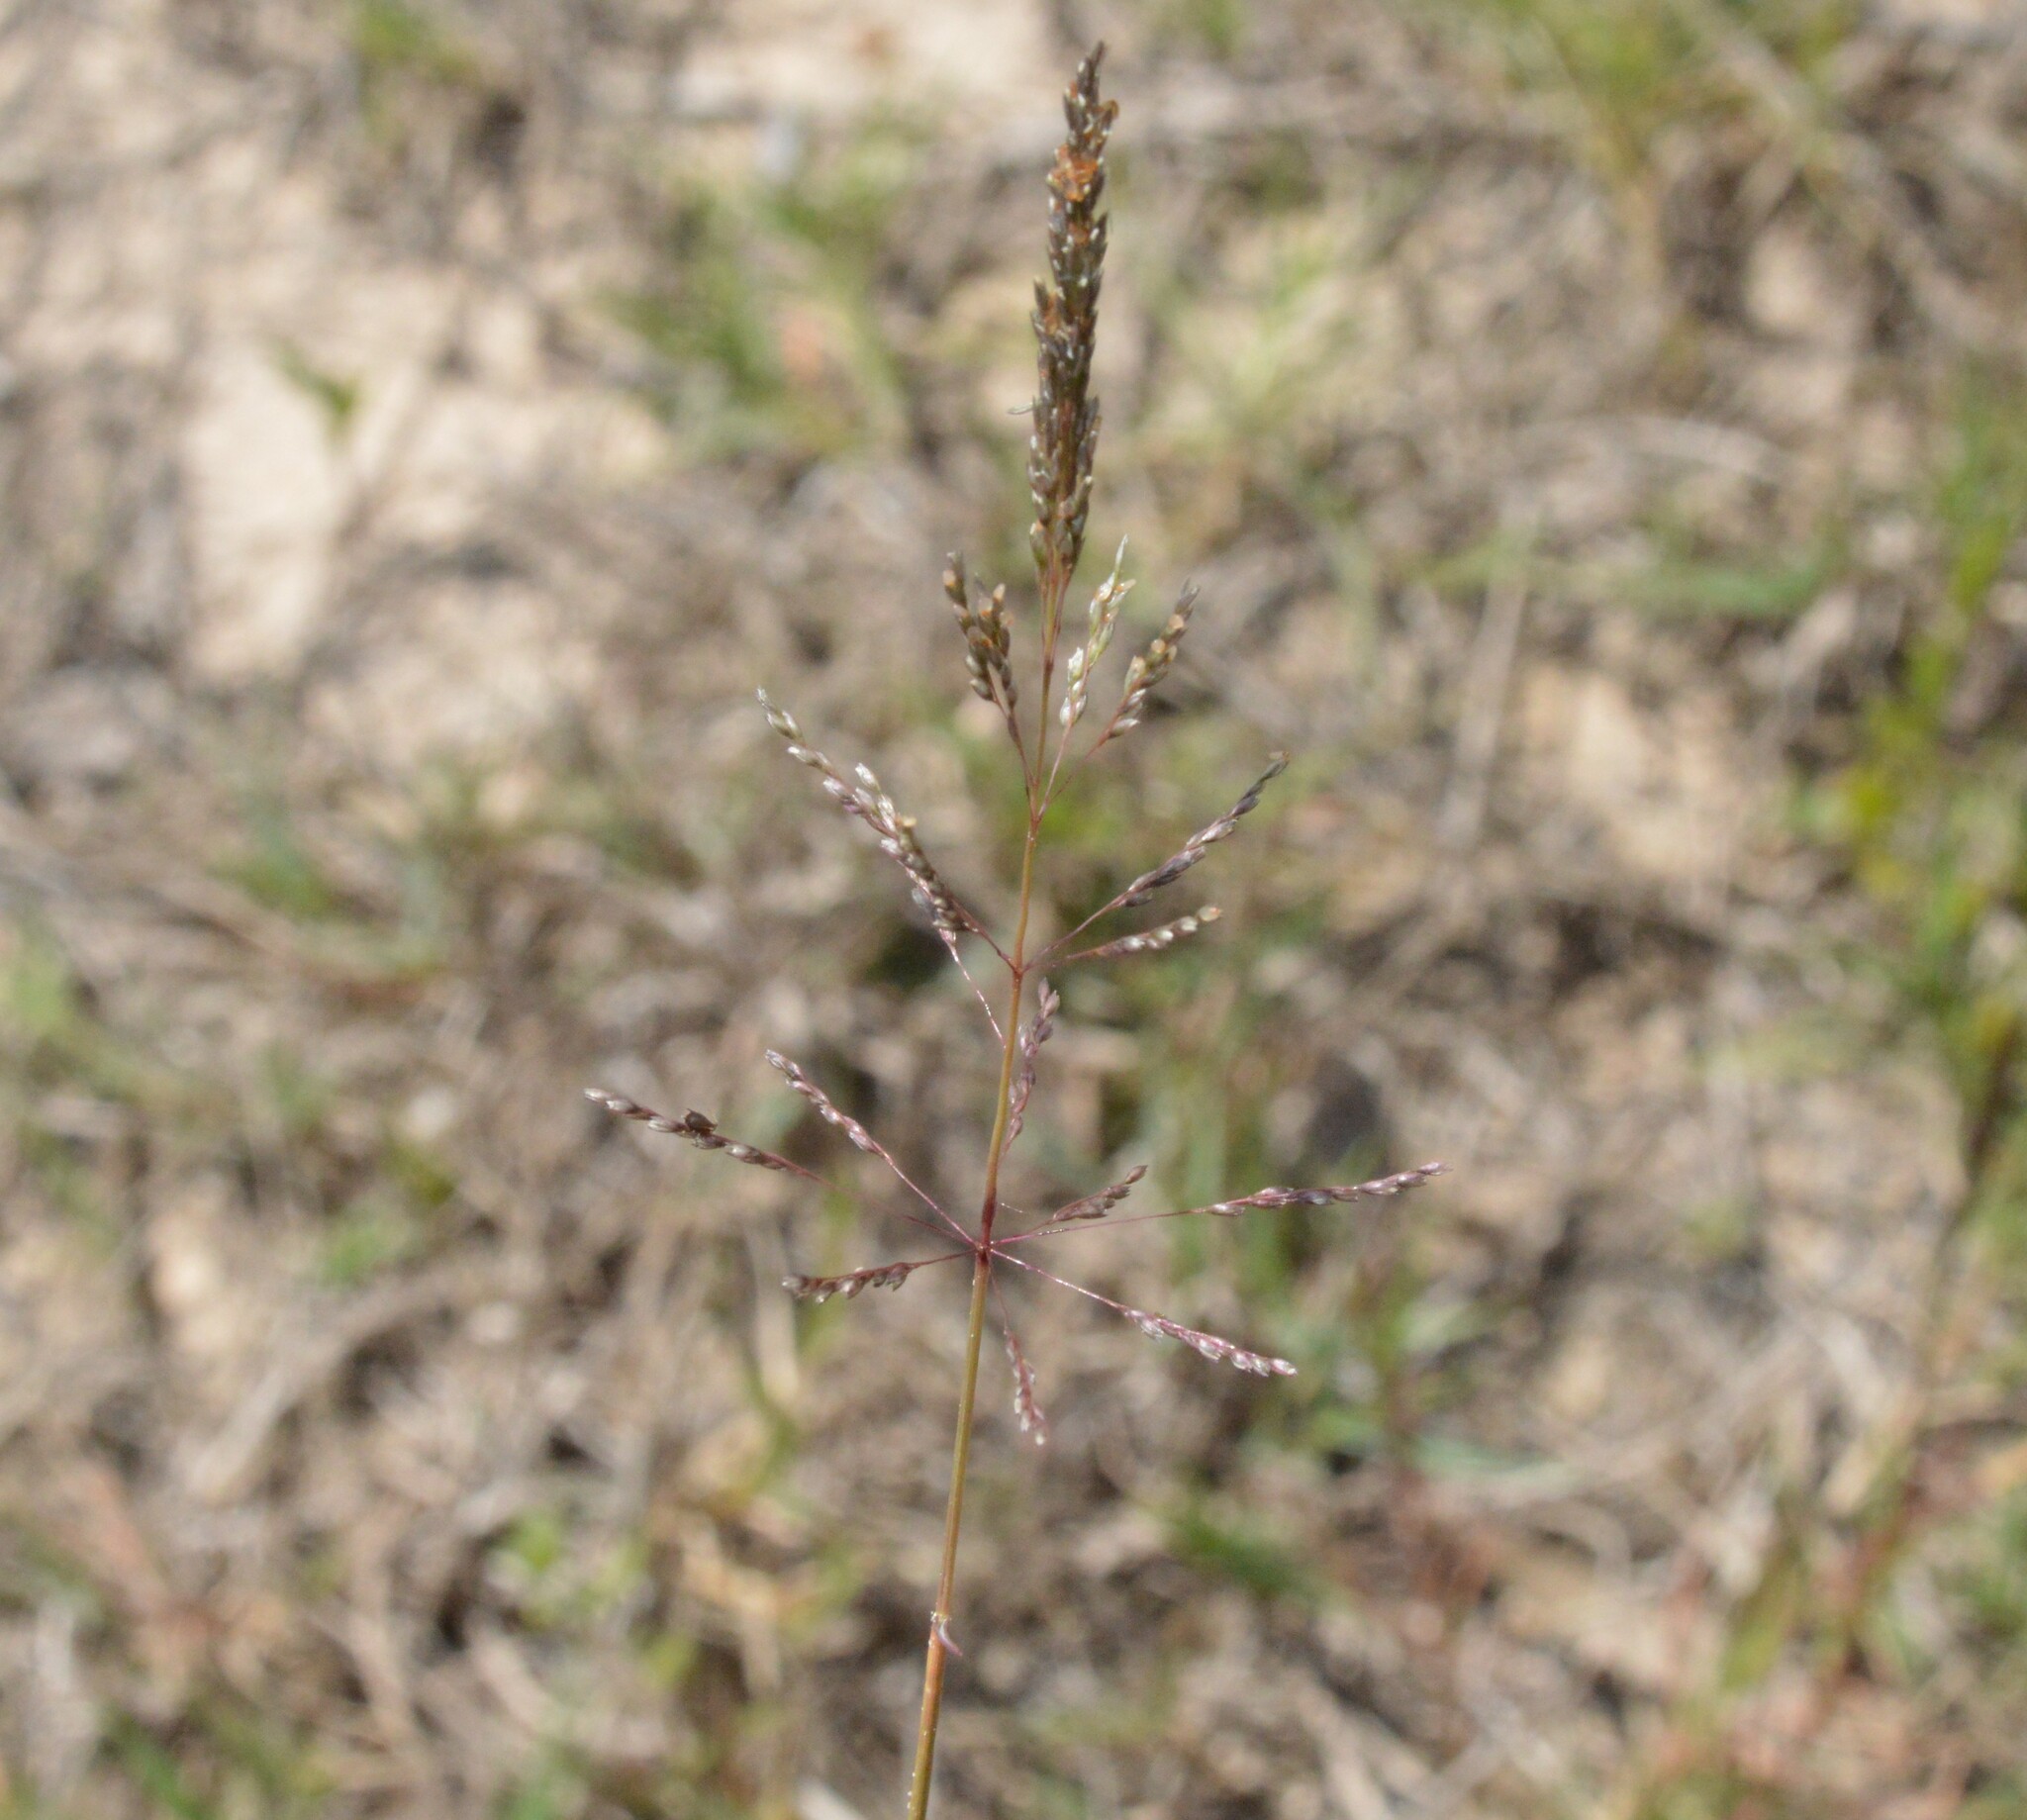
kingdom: Plantae
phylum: Tracheophyta
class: Liliopsida
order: Poales
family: Poaceae
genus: Sporobolus
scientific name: Sporobolus pyramidatus
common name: Whorled dropseed
